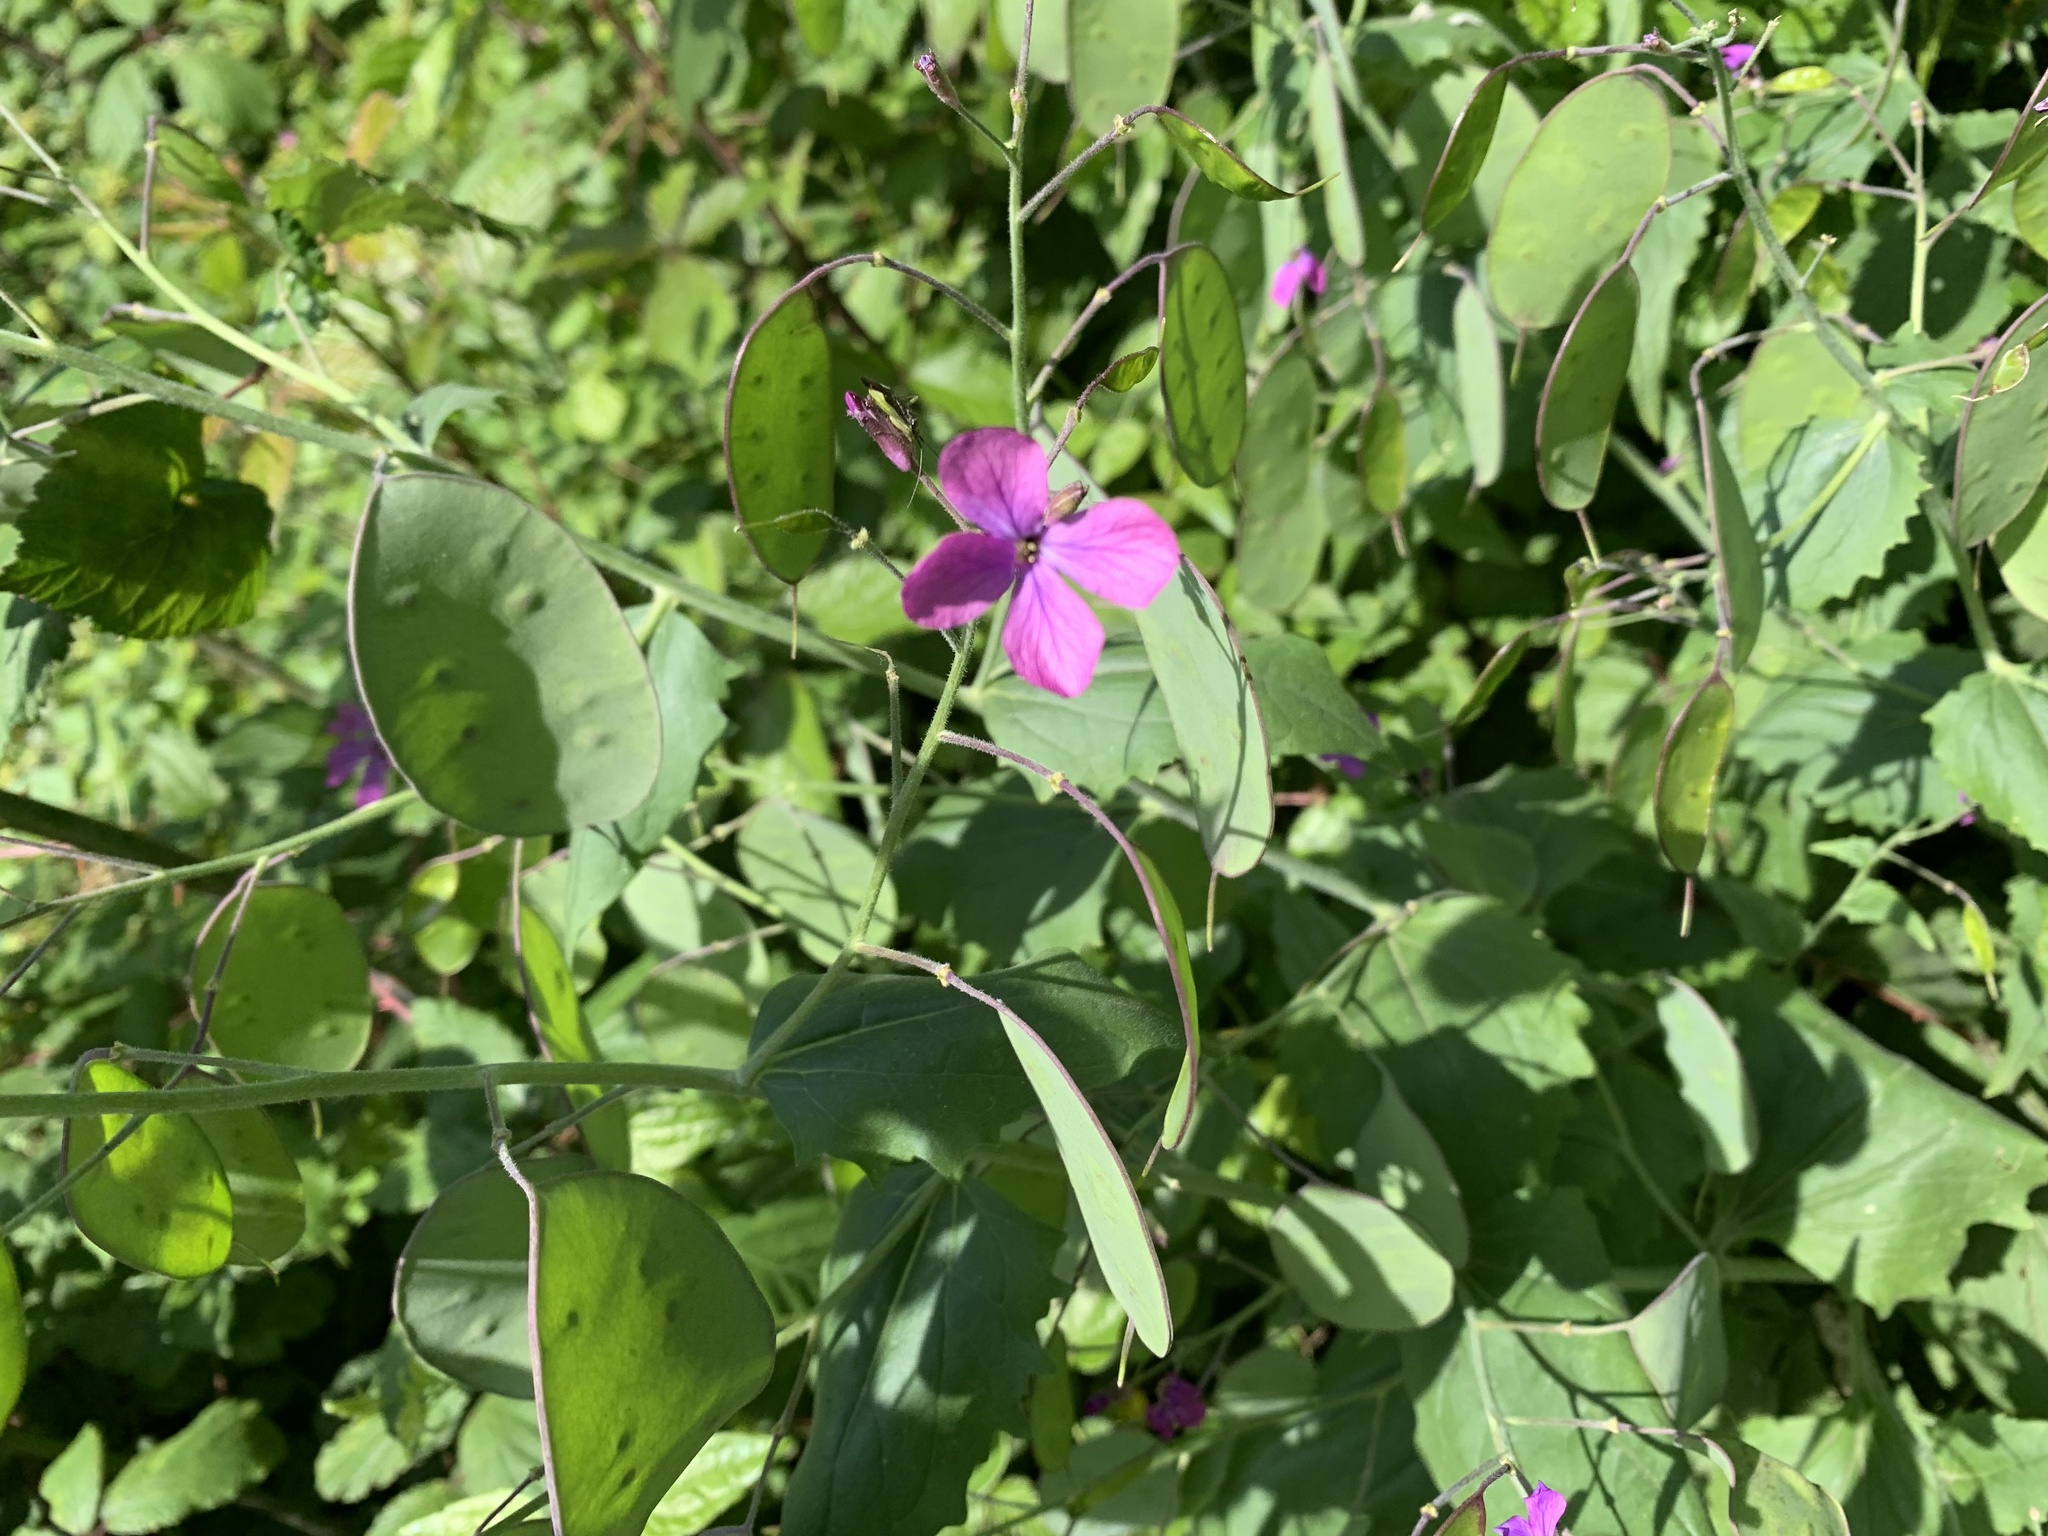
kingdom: Plantae
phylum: Tracheophyta
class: Magnoliopsida
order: Brassicales
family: Brassicaceae
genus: Lunaria
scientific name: Lunaria annua
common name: Honesty
